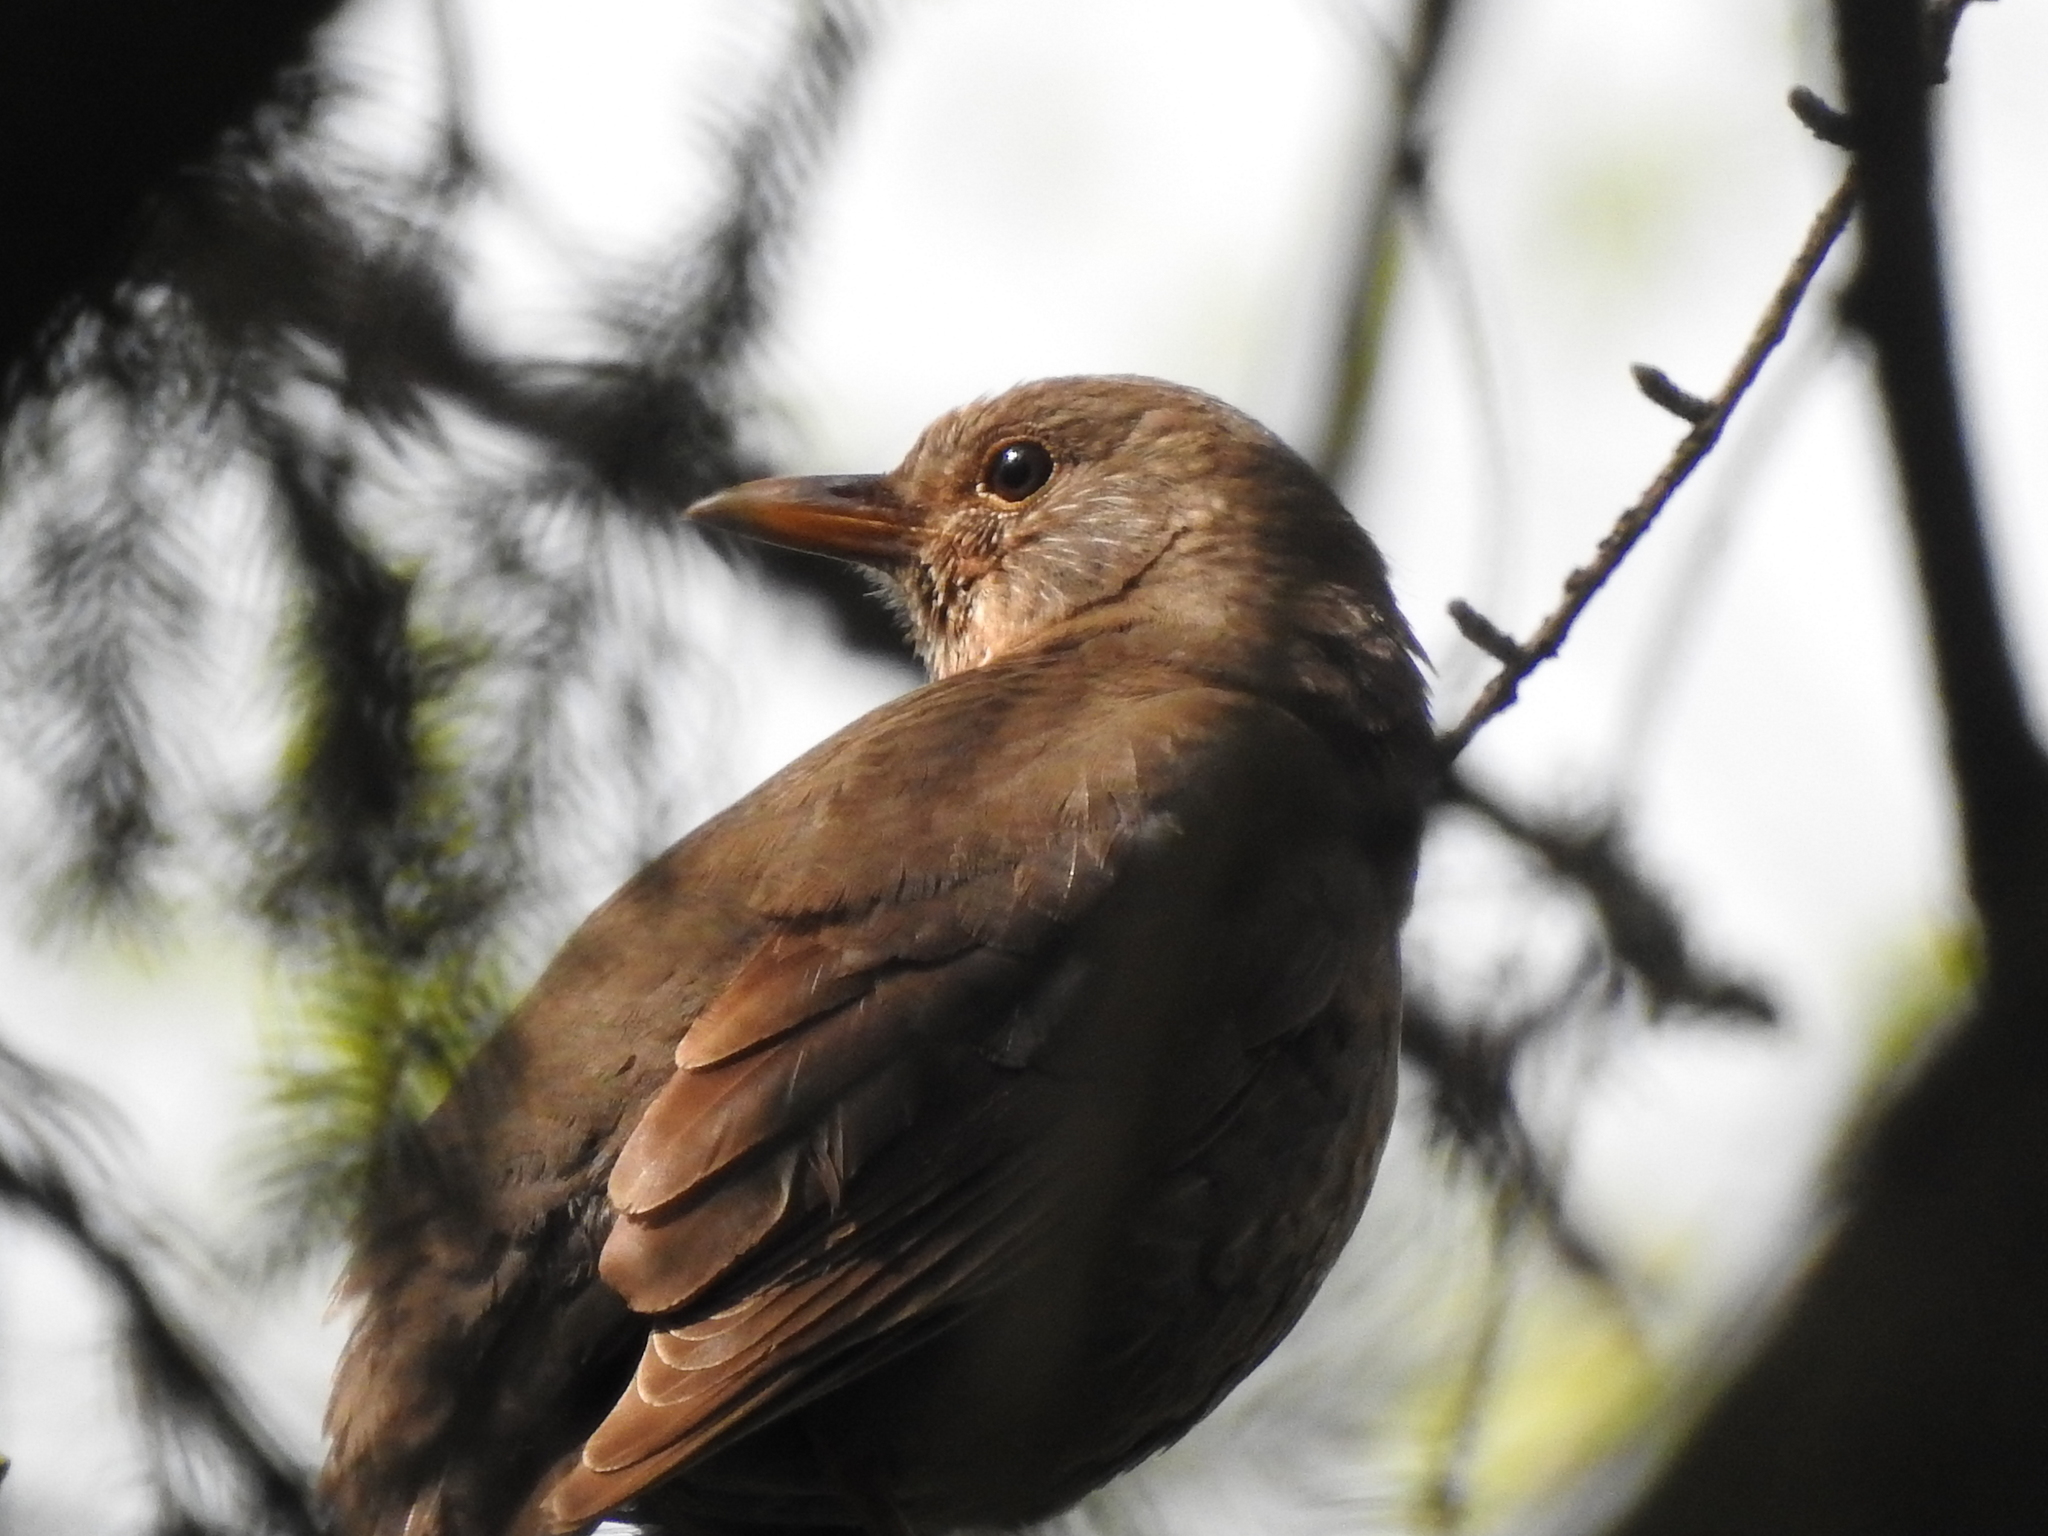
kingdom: Animalia
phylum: Chordata
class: Aves
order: Passeriformes
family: Turdidae
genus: Turdus
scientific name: Turdus merula
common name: Common blackbird
